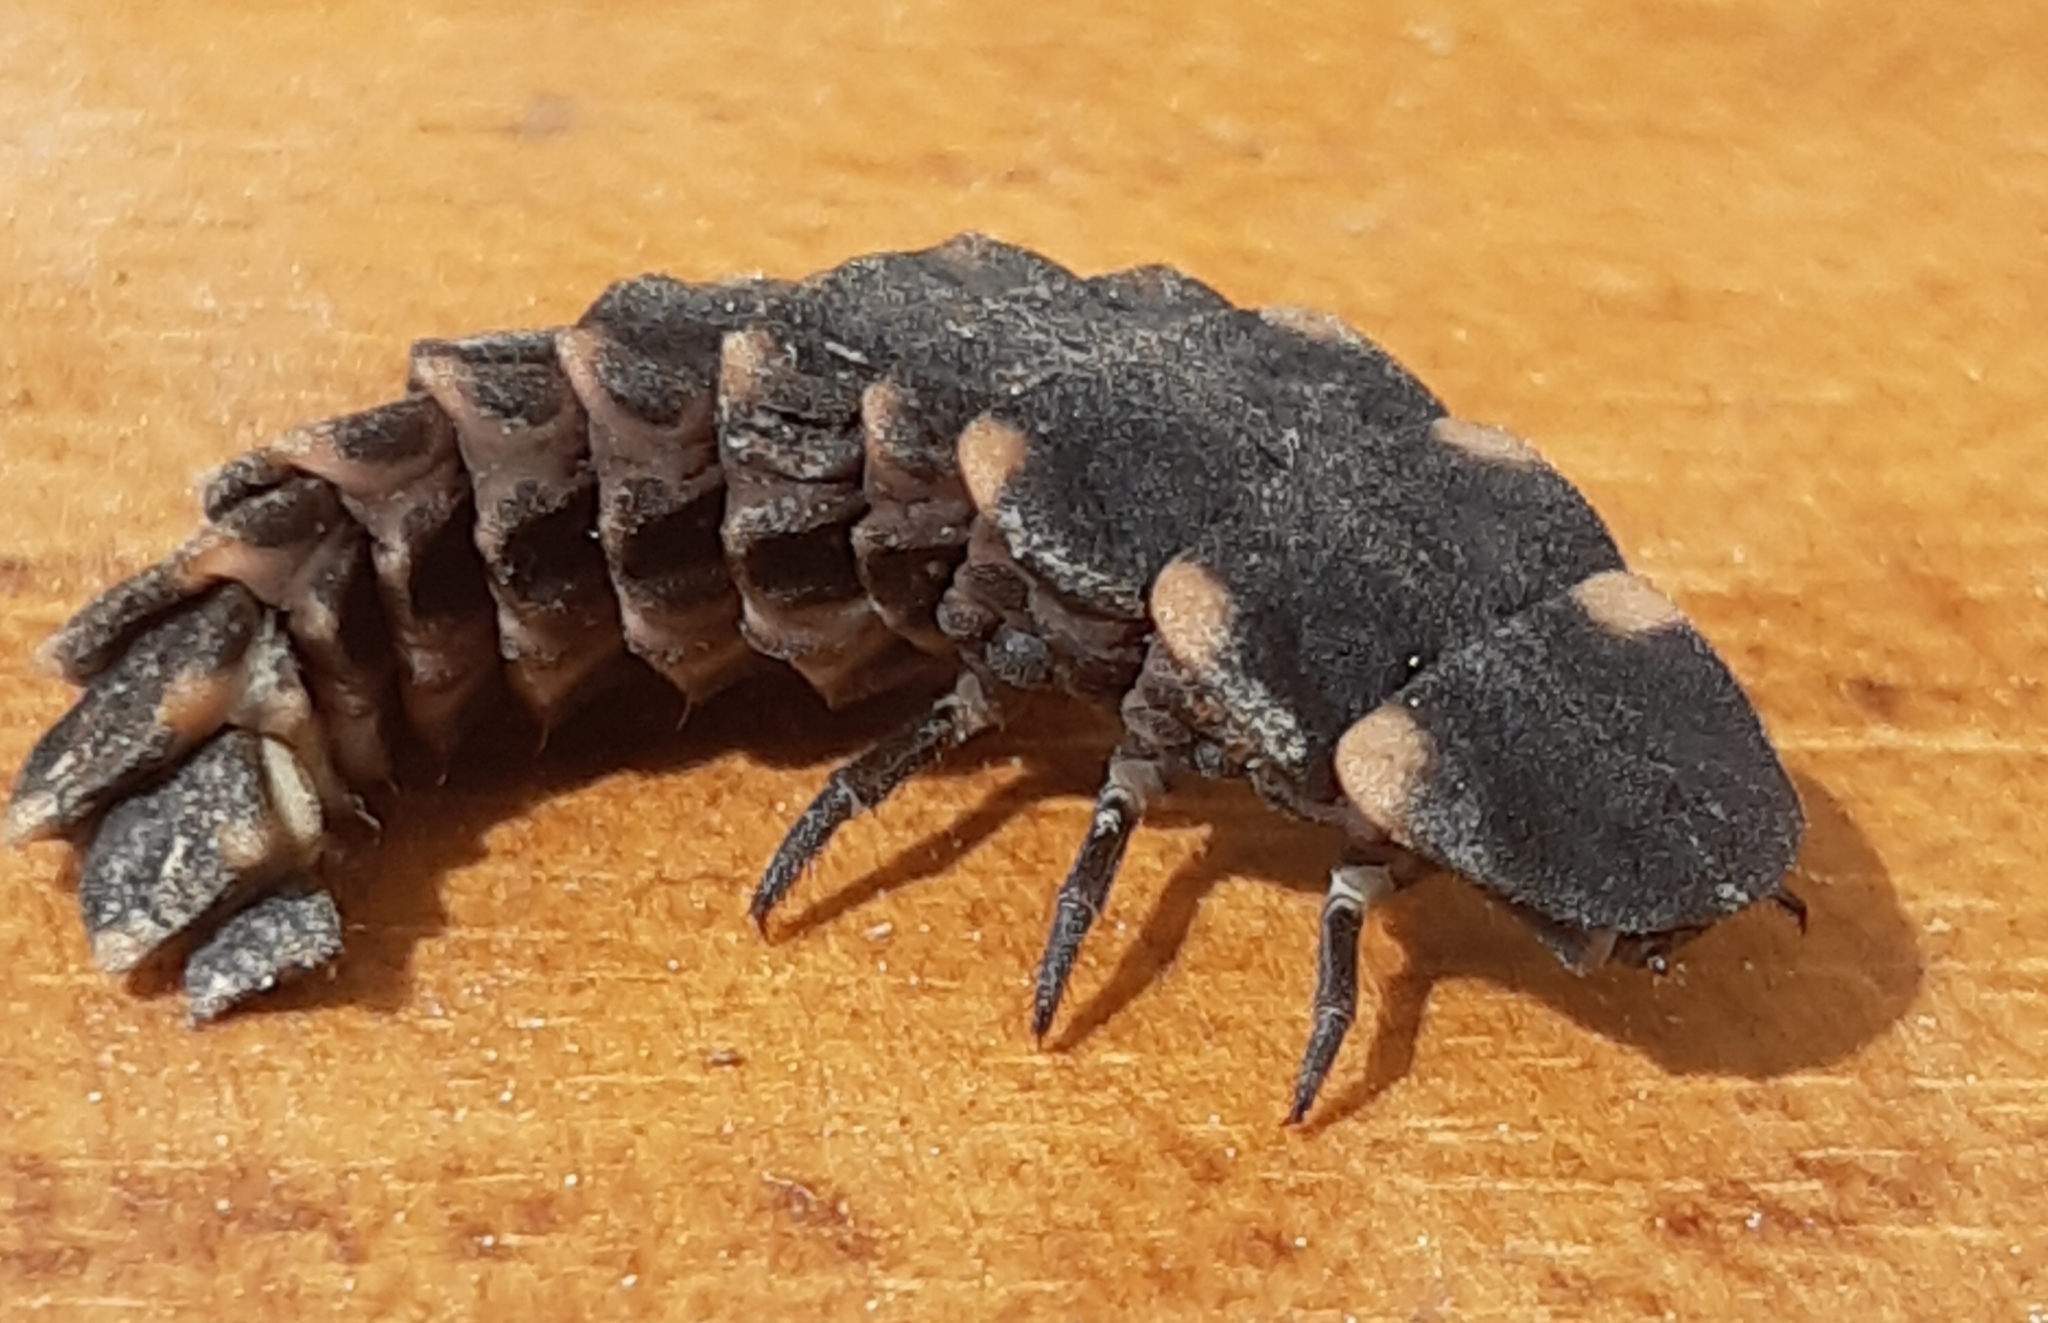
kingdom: Animalia
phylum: Arthropoda
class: Insecta
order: Coleoptera
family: Lampyridae
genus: Lampyris
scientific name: Lampyris noctiluca
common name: Glow-worm
